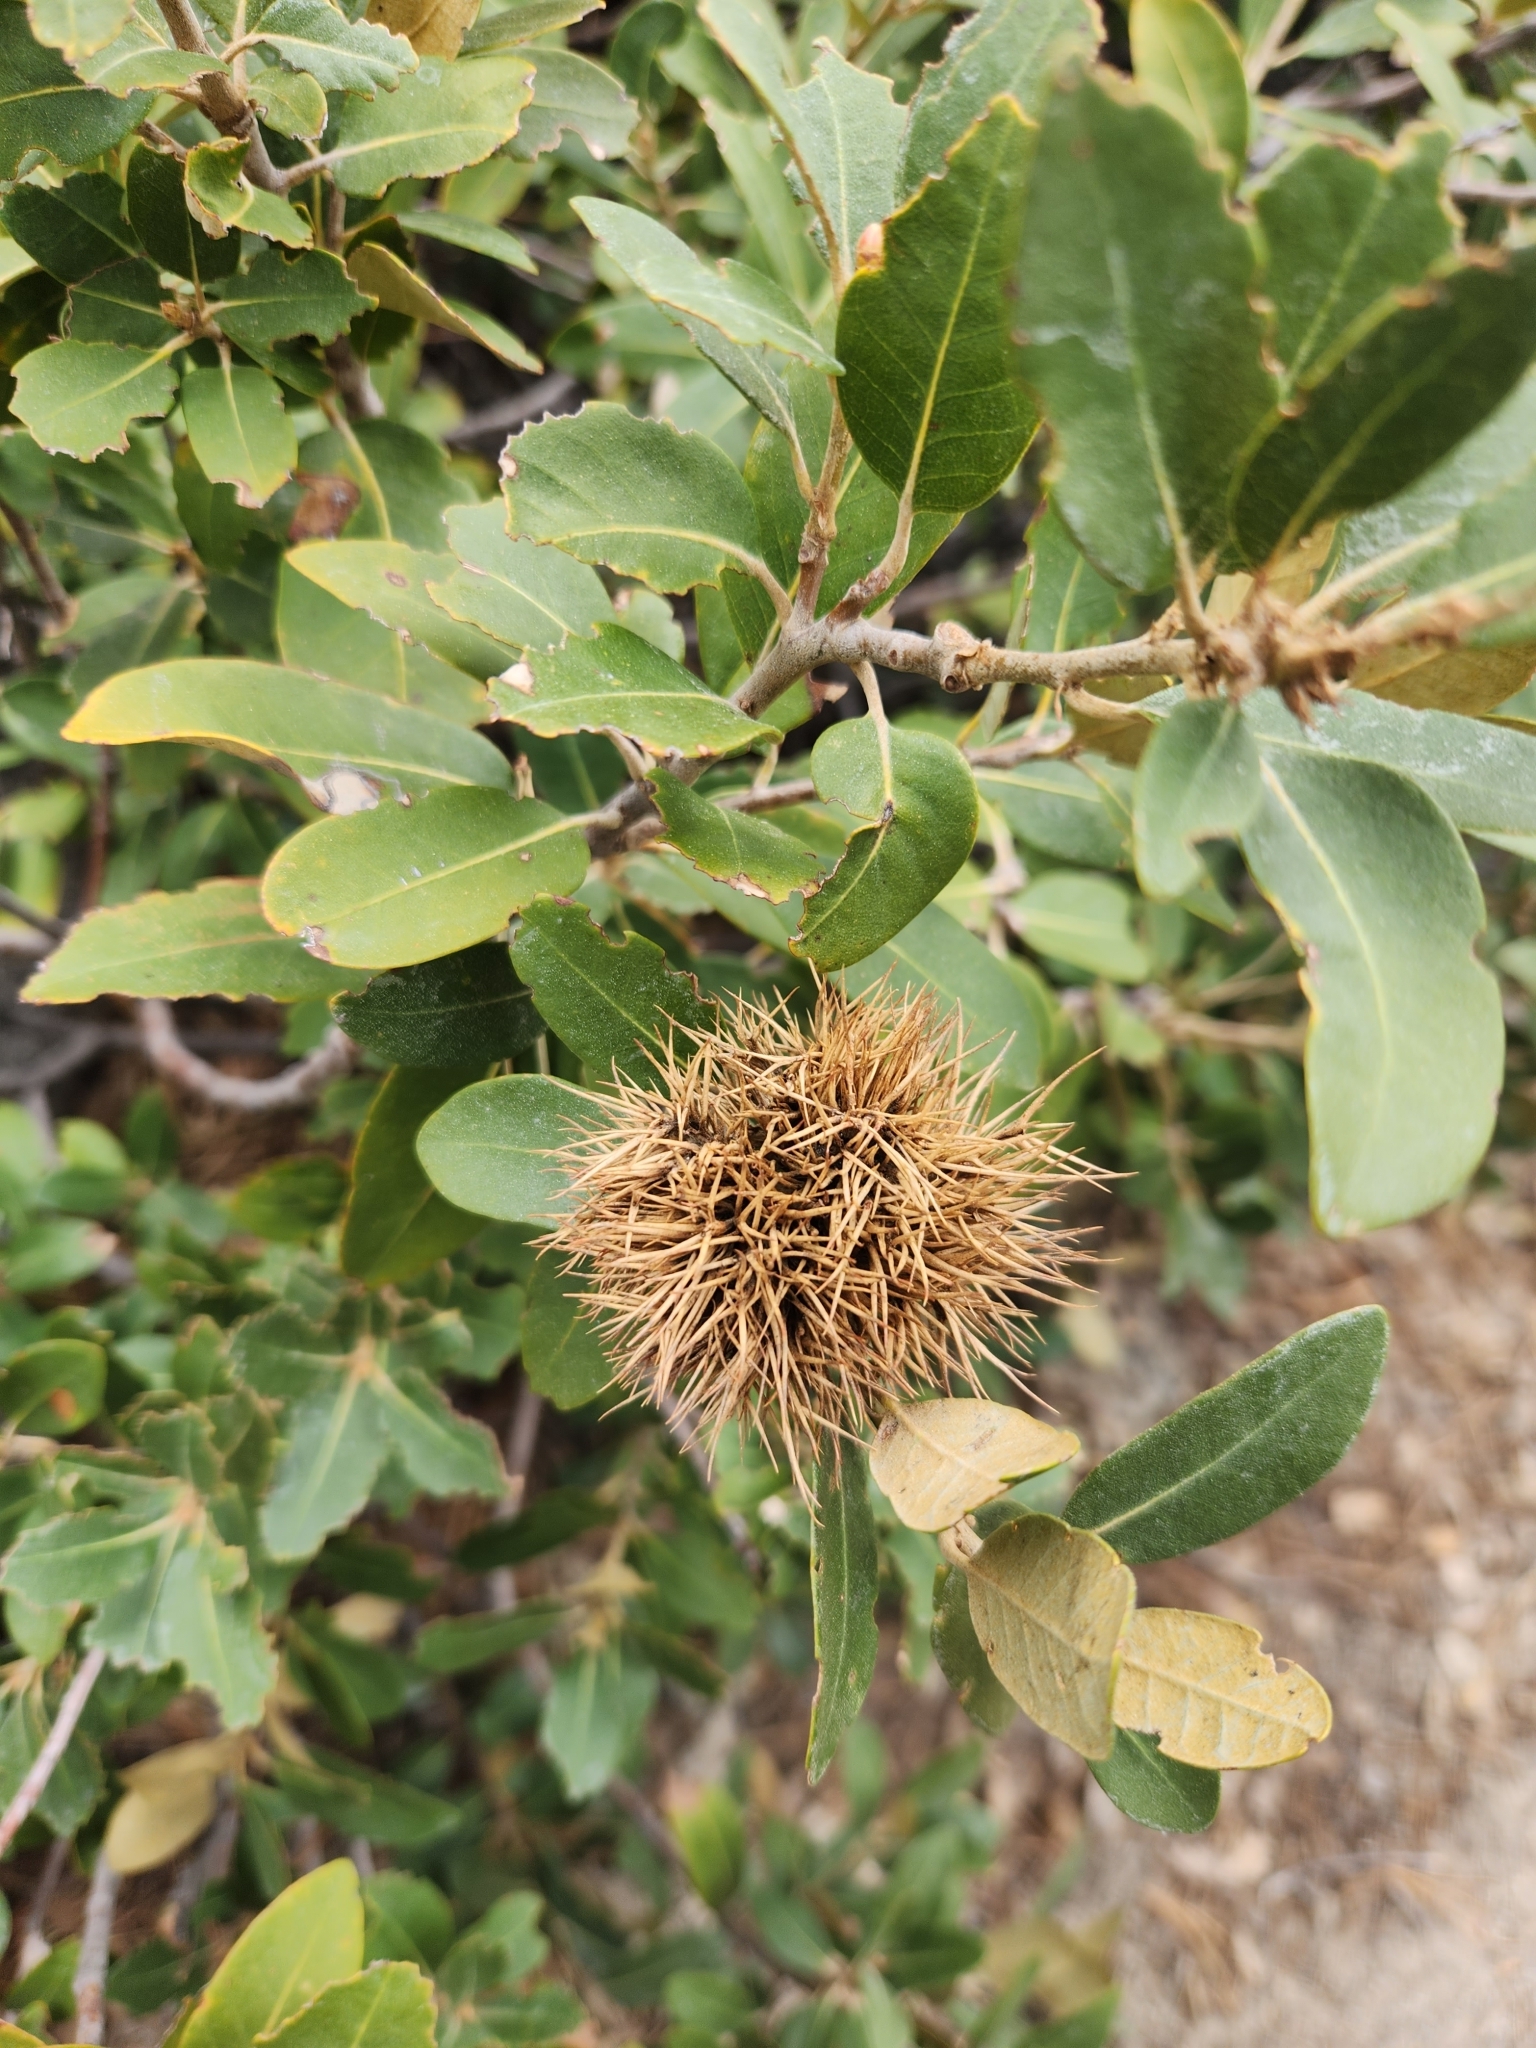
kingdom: Plantae
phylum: Tracheophyta
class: Magnoliopsida
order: Fagales
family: Fagaceae
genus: Chrysolepis
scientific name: Chrysolepis sempervirens
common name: Bush chinquapin
